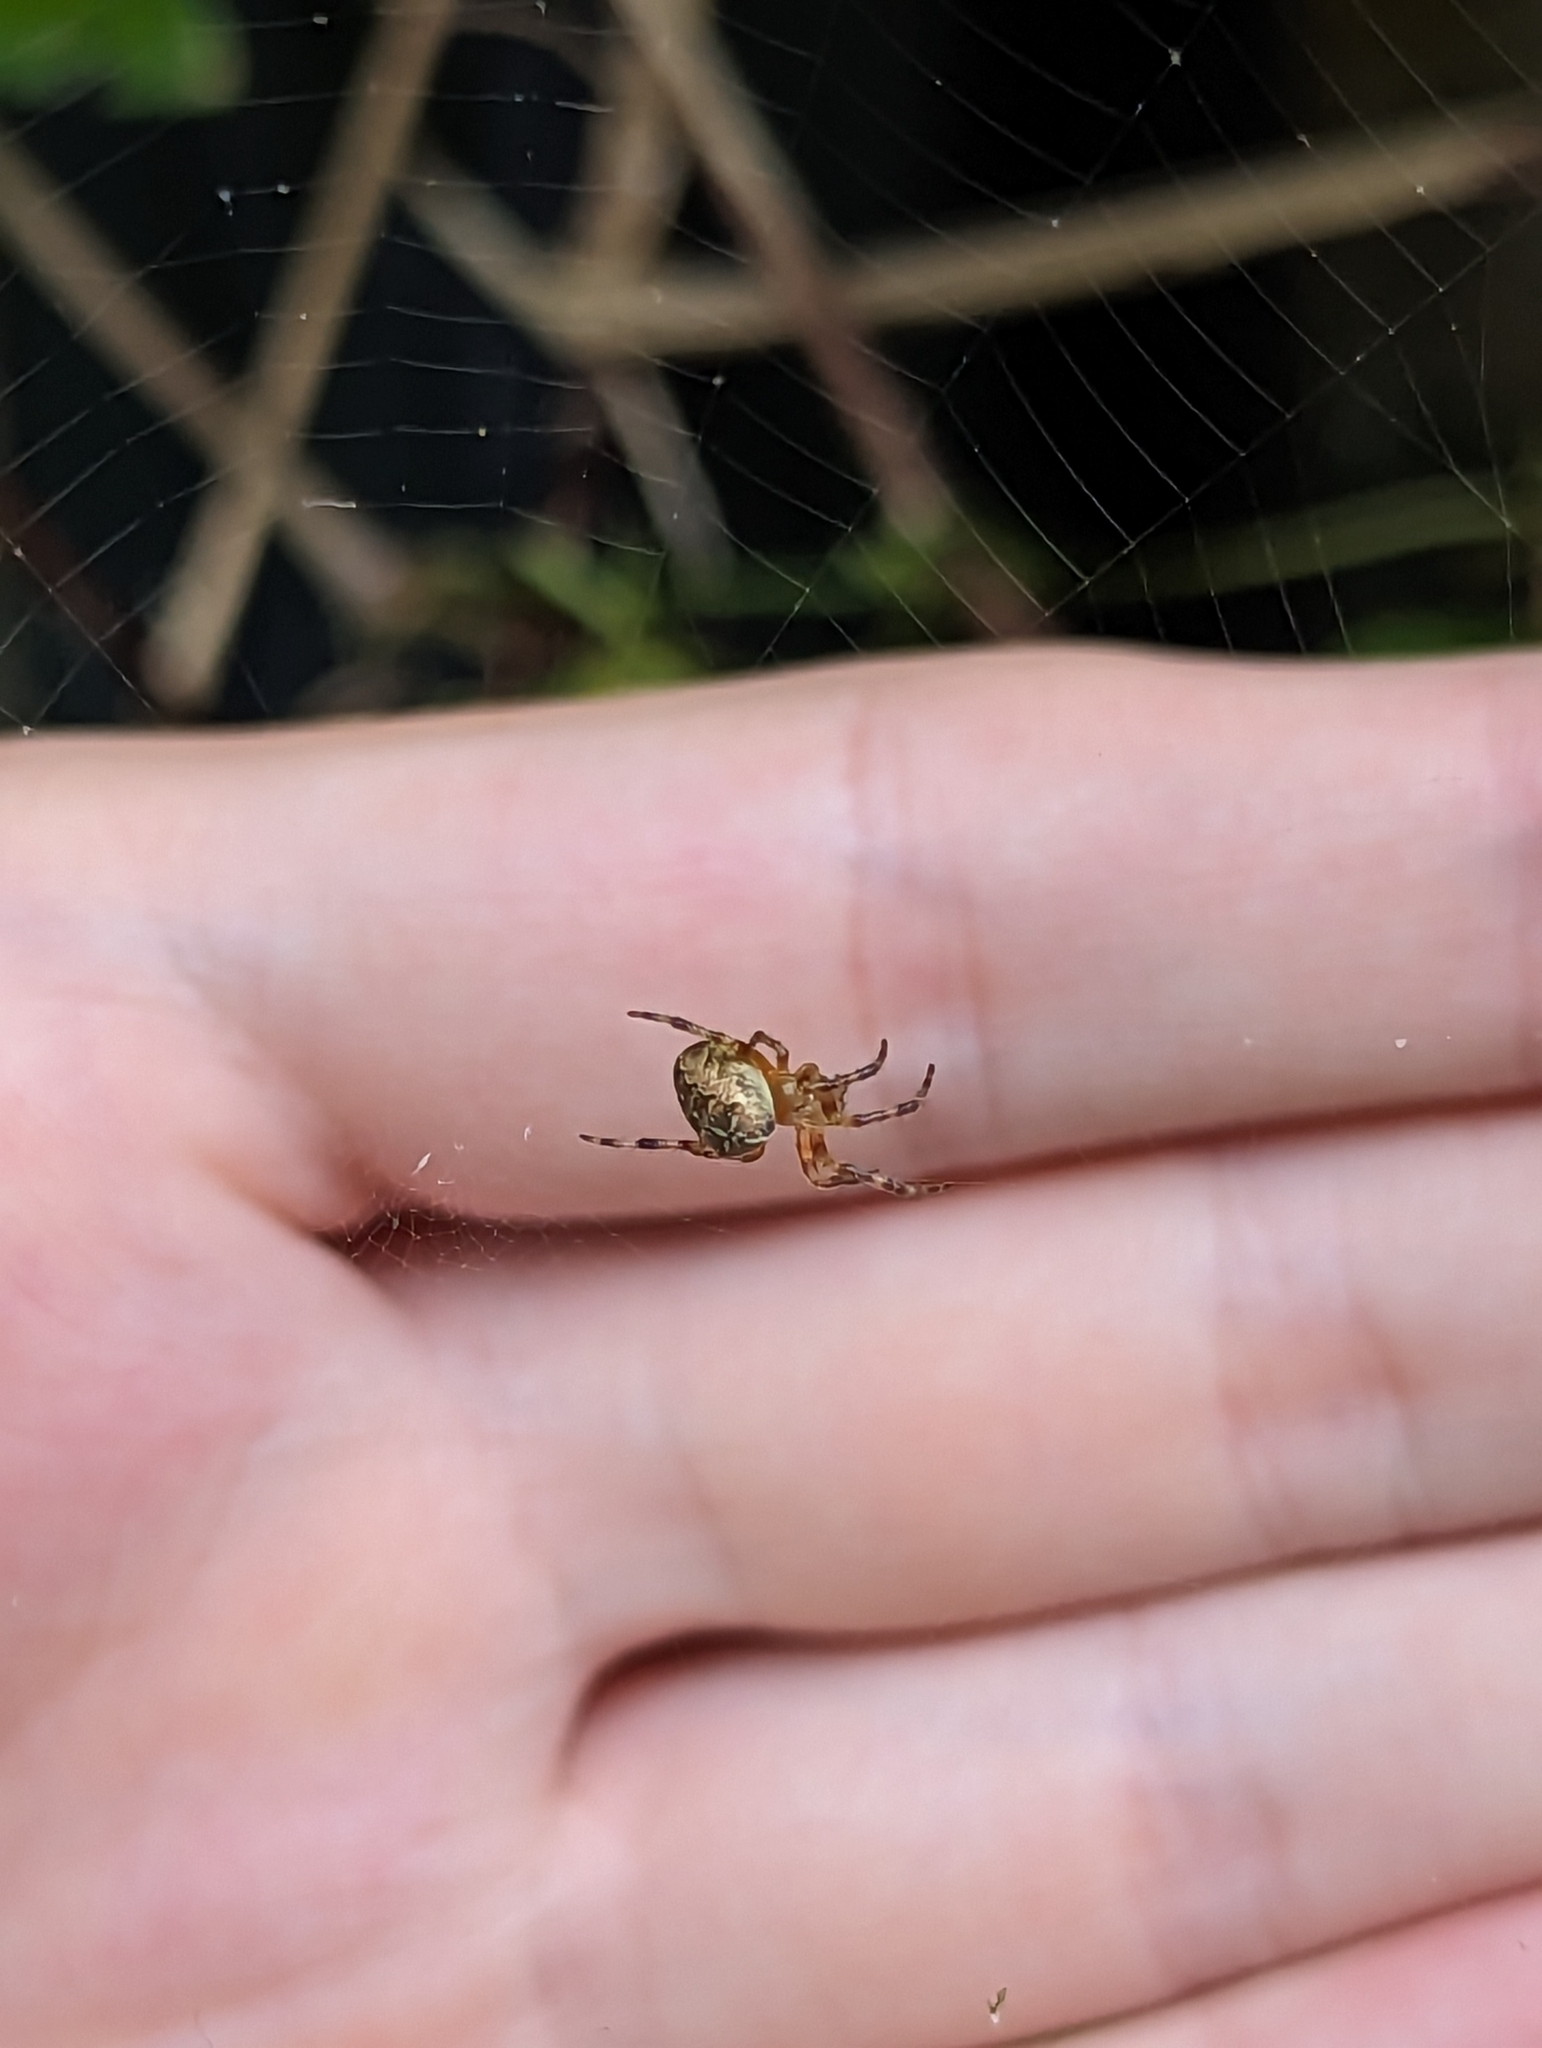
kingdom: Animalia
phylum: Arthropoda
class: Arachnida
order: Araneae
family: Araneidae
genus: Araneus
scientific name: Araneus diadematus
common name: Cross orbweaver
